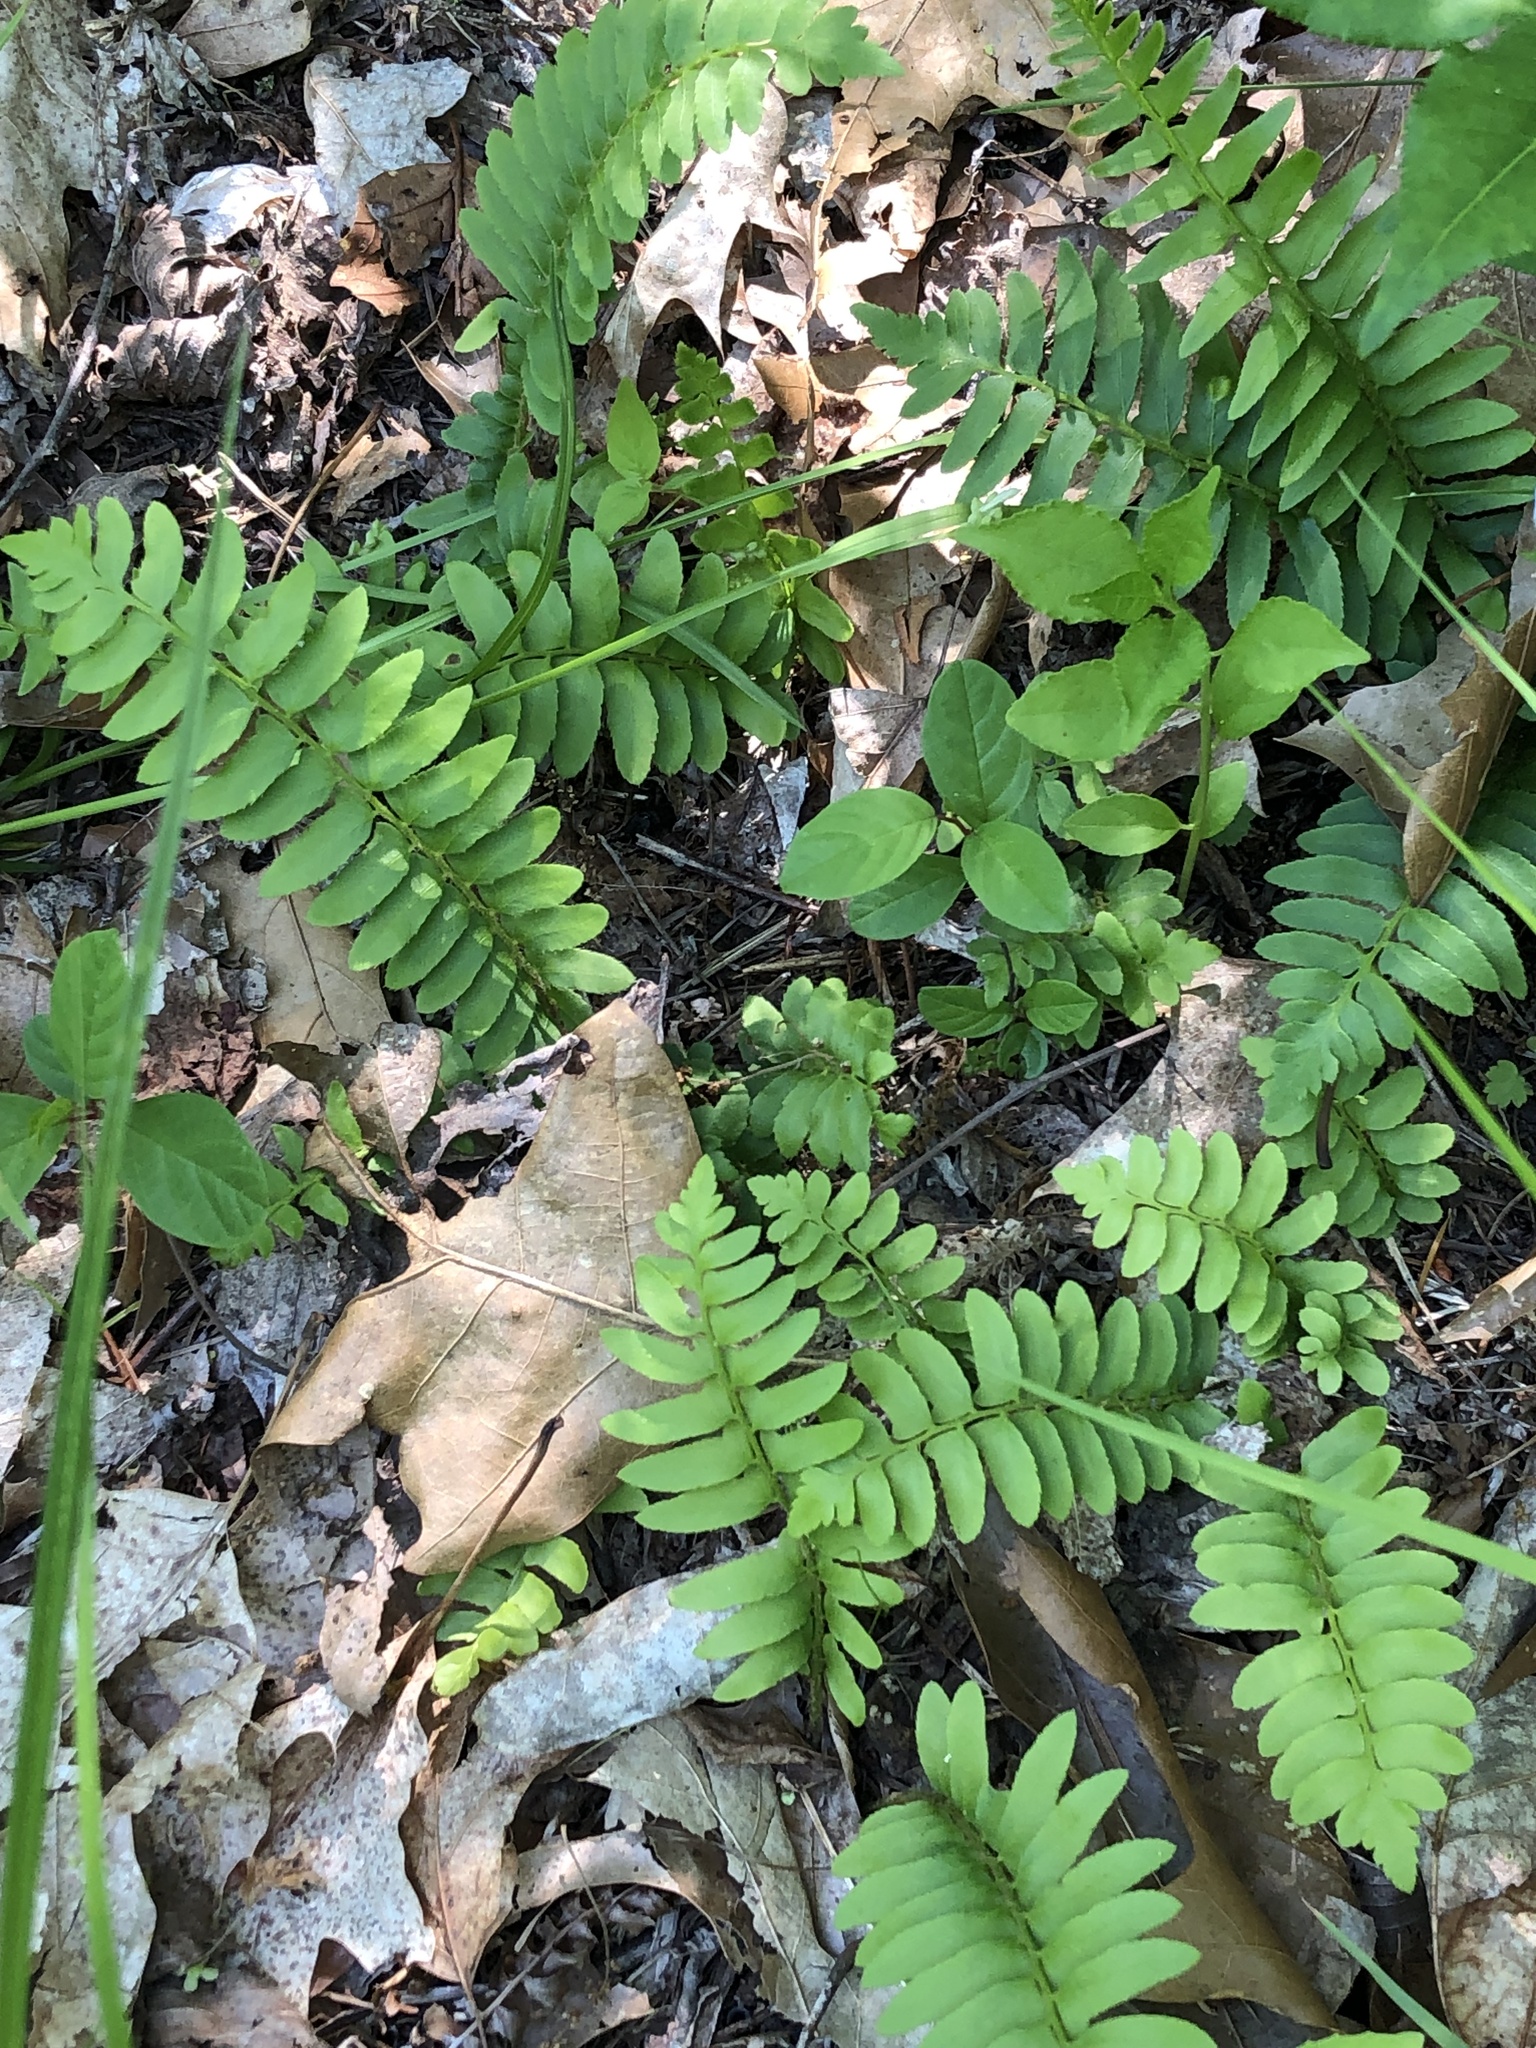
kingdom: Plantae
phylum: Tracheophyta
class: Polypodiopsida
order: Polypodiales
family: Dryopteridaceae
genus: Polystichum
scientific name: Polystichum acrostichoides
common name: Christmas fern
